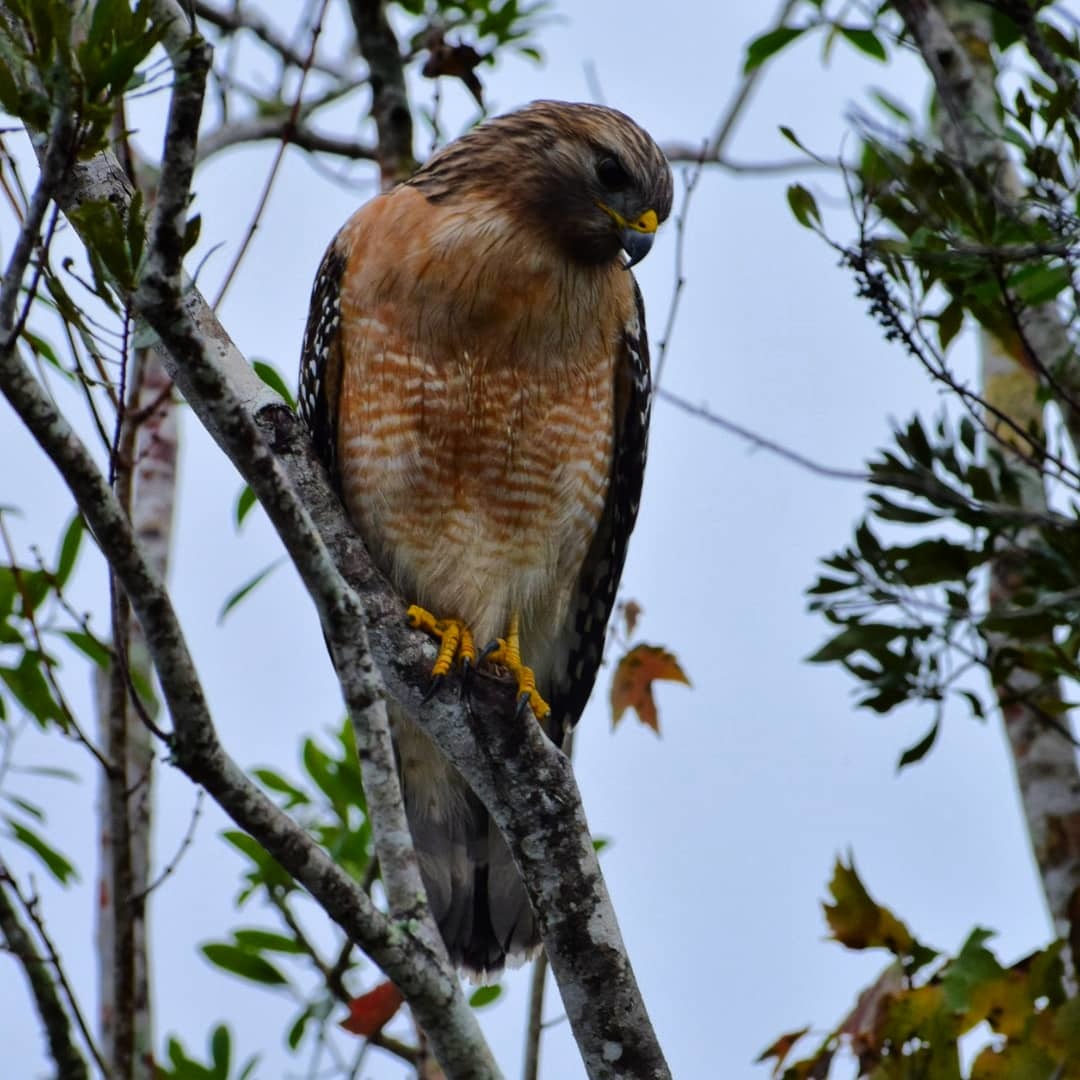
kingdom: Animalia
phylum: Chordata
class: Aves
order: Accipitriformes
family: Accipitridae
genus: Buteo
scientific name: Buteo lineatus
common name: Red-shouldered hawk
